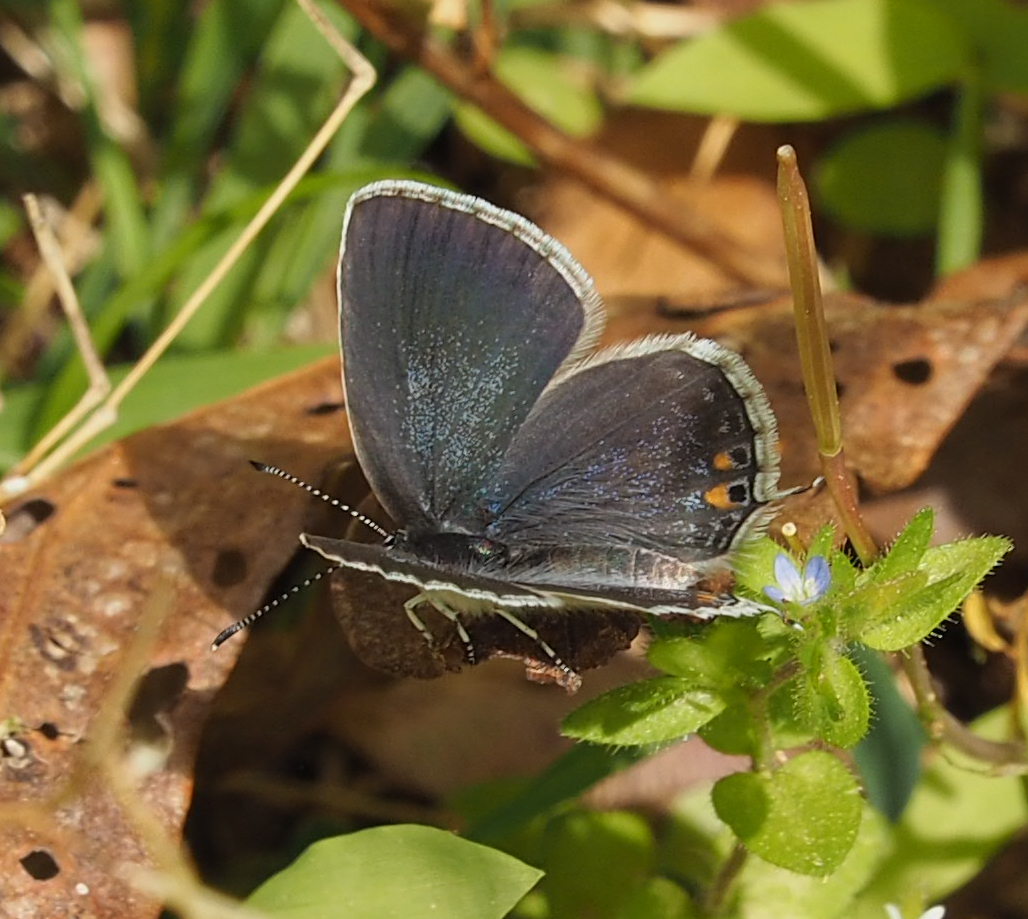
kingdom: Animalia
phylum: Arthropoda
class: Insecta
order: Lepidoptera
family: Lycaenidae
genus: Elkalyce
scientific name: Elkalyce comyntas
